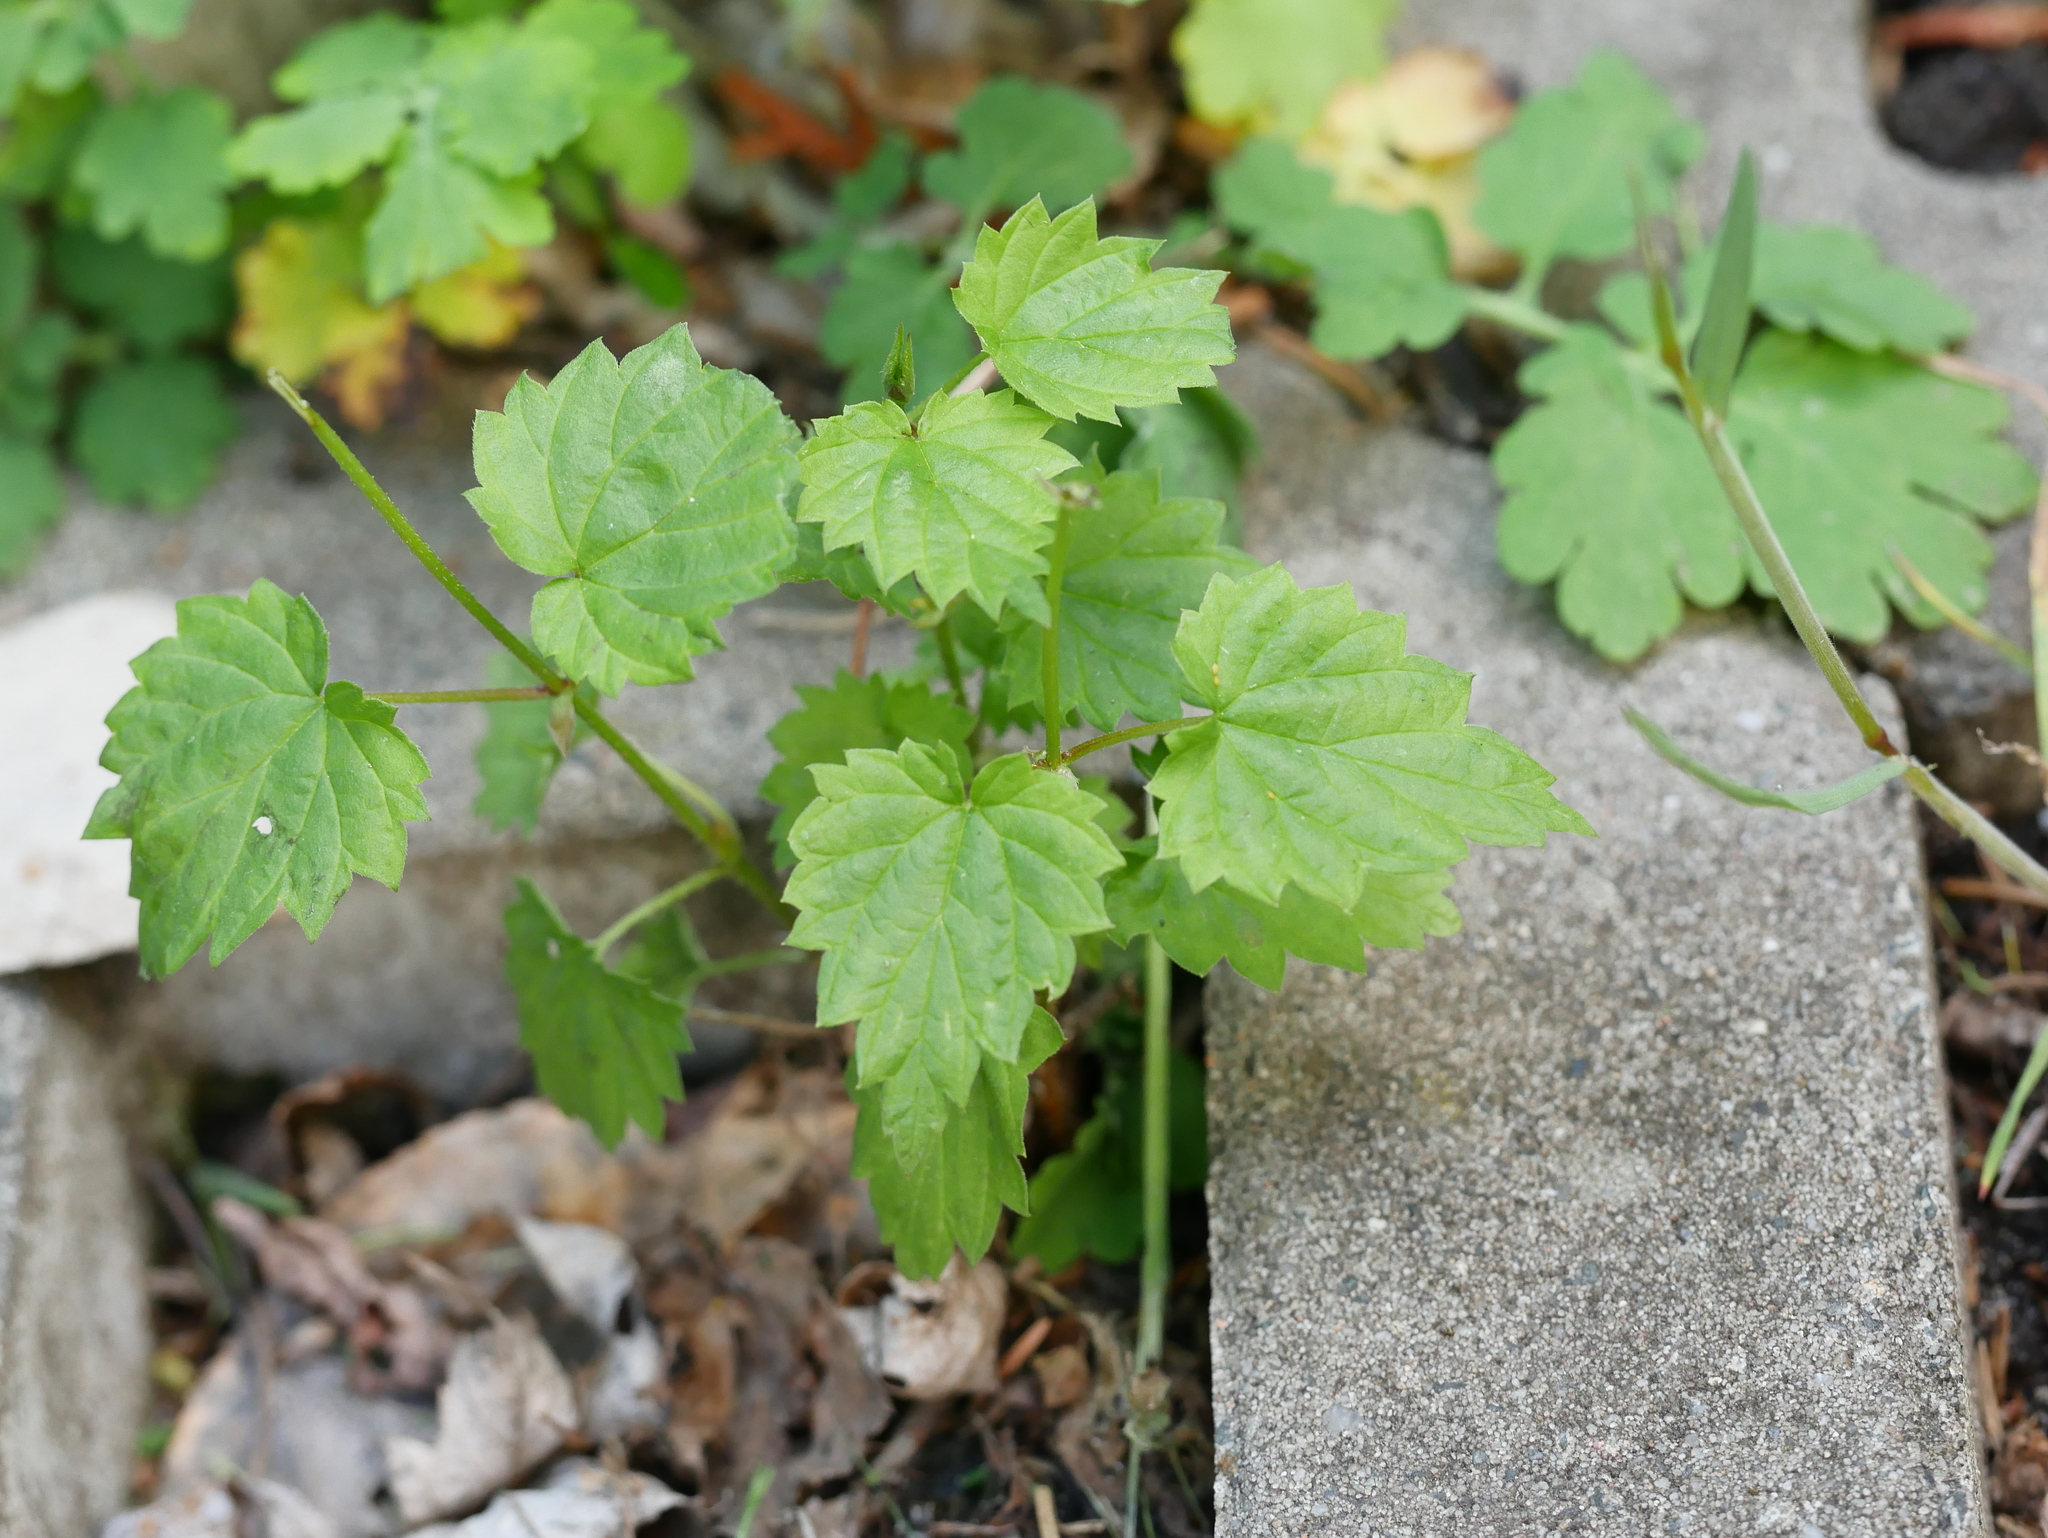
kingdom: Plantae
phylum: Tracheophyta
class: Magnoliopsida
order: Rosales
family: Cannabaceae
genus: Humulus
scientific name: Humulus lupulus
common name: Hop
